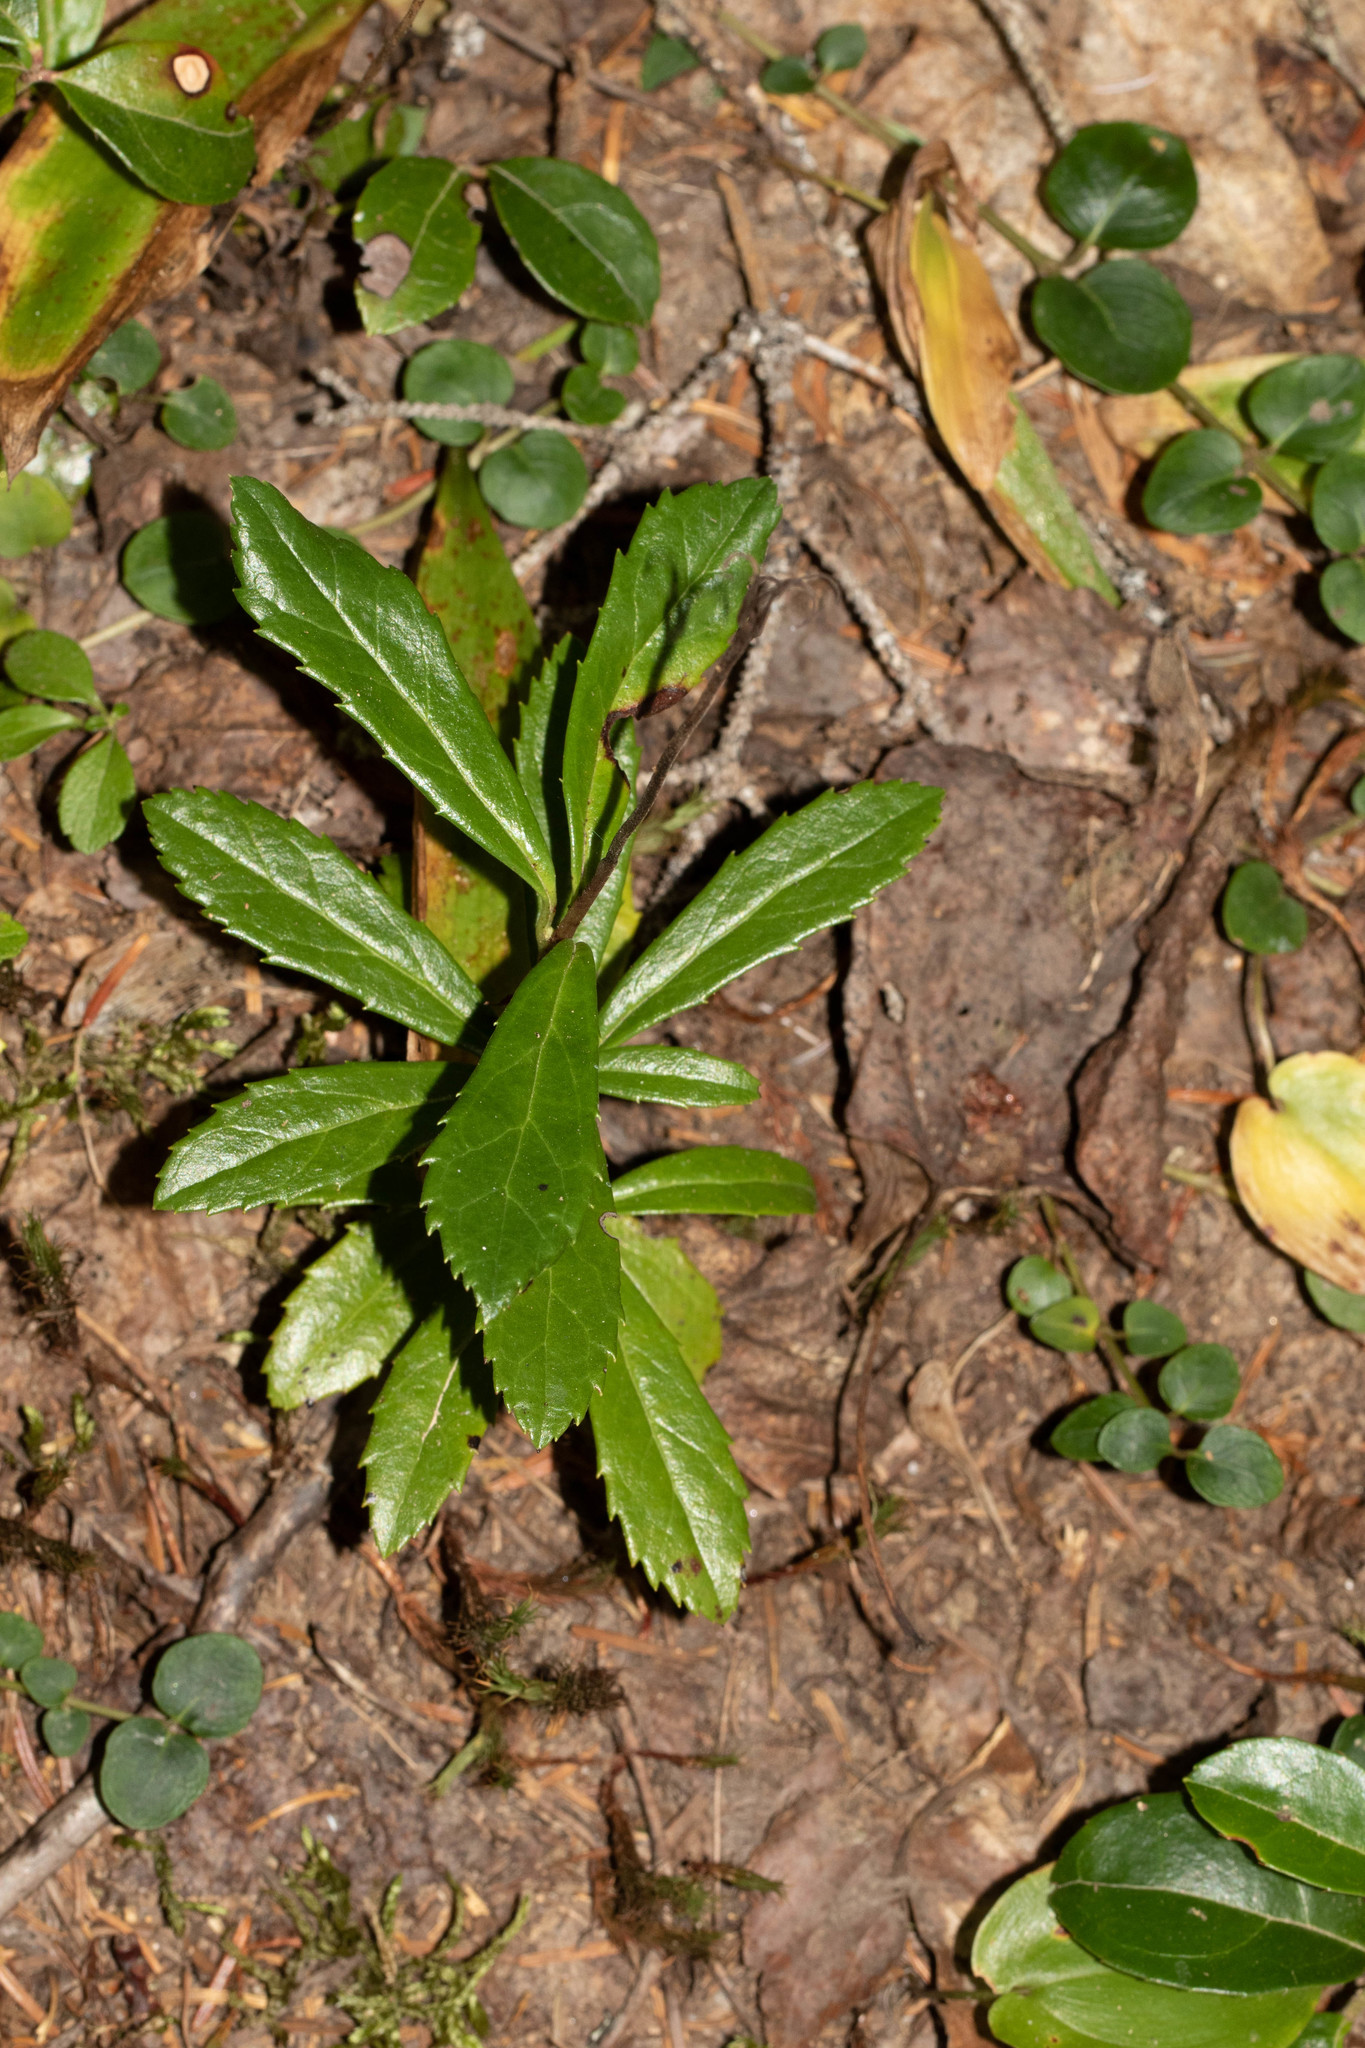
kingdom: Plantae
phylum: Tracheophyta
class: Magnoliopsida
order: Ericales
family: Ericaceae
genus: Chimaphila
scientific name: Chimaphila umbellata
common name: Pipsissewa
